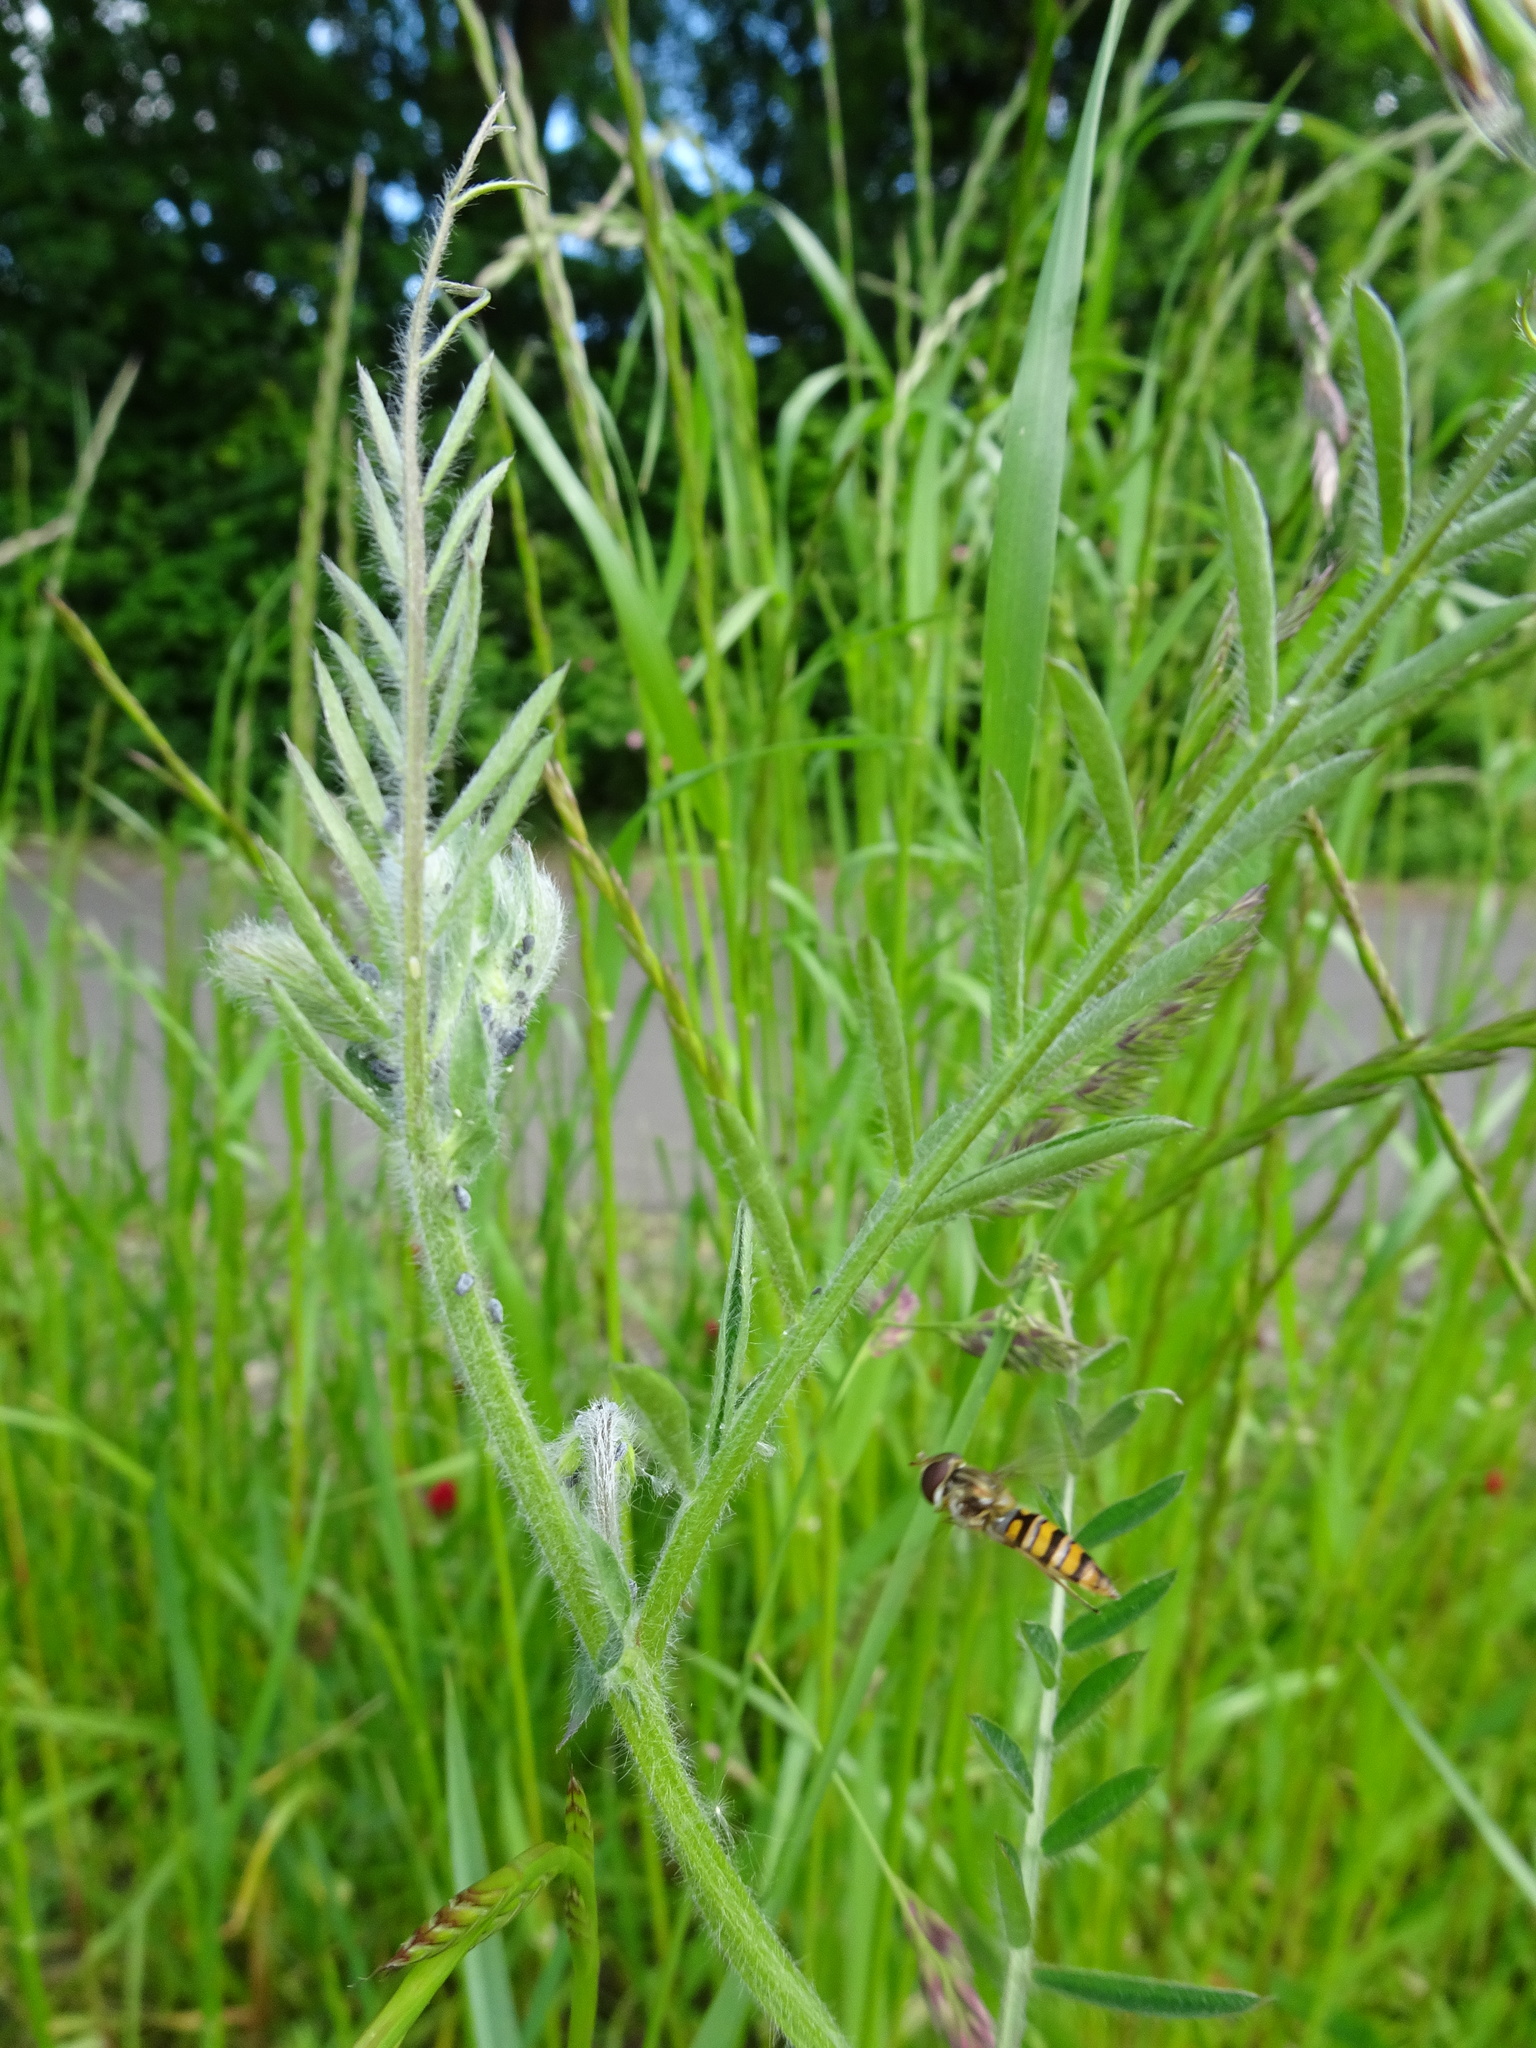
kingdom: Plantae
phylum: Tracheophyta
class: Magnoliopsida
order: Fabales
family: Fabaceae
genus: Vicia
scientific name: Vicia villosa
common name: Fodder vetch
